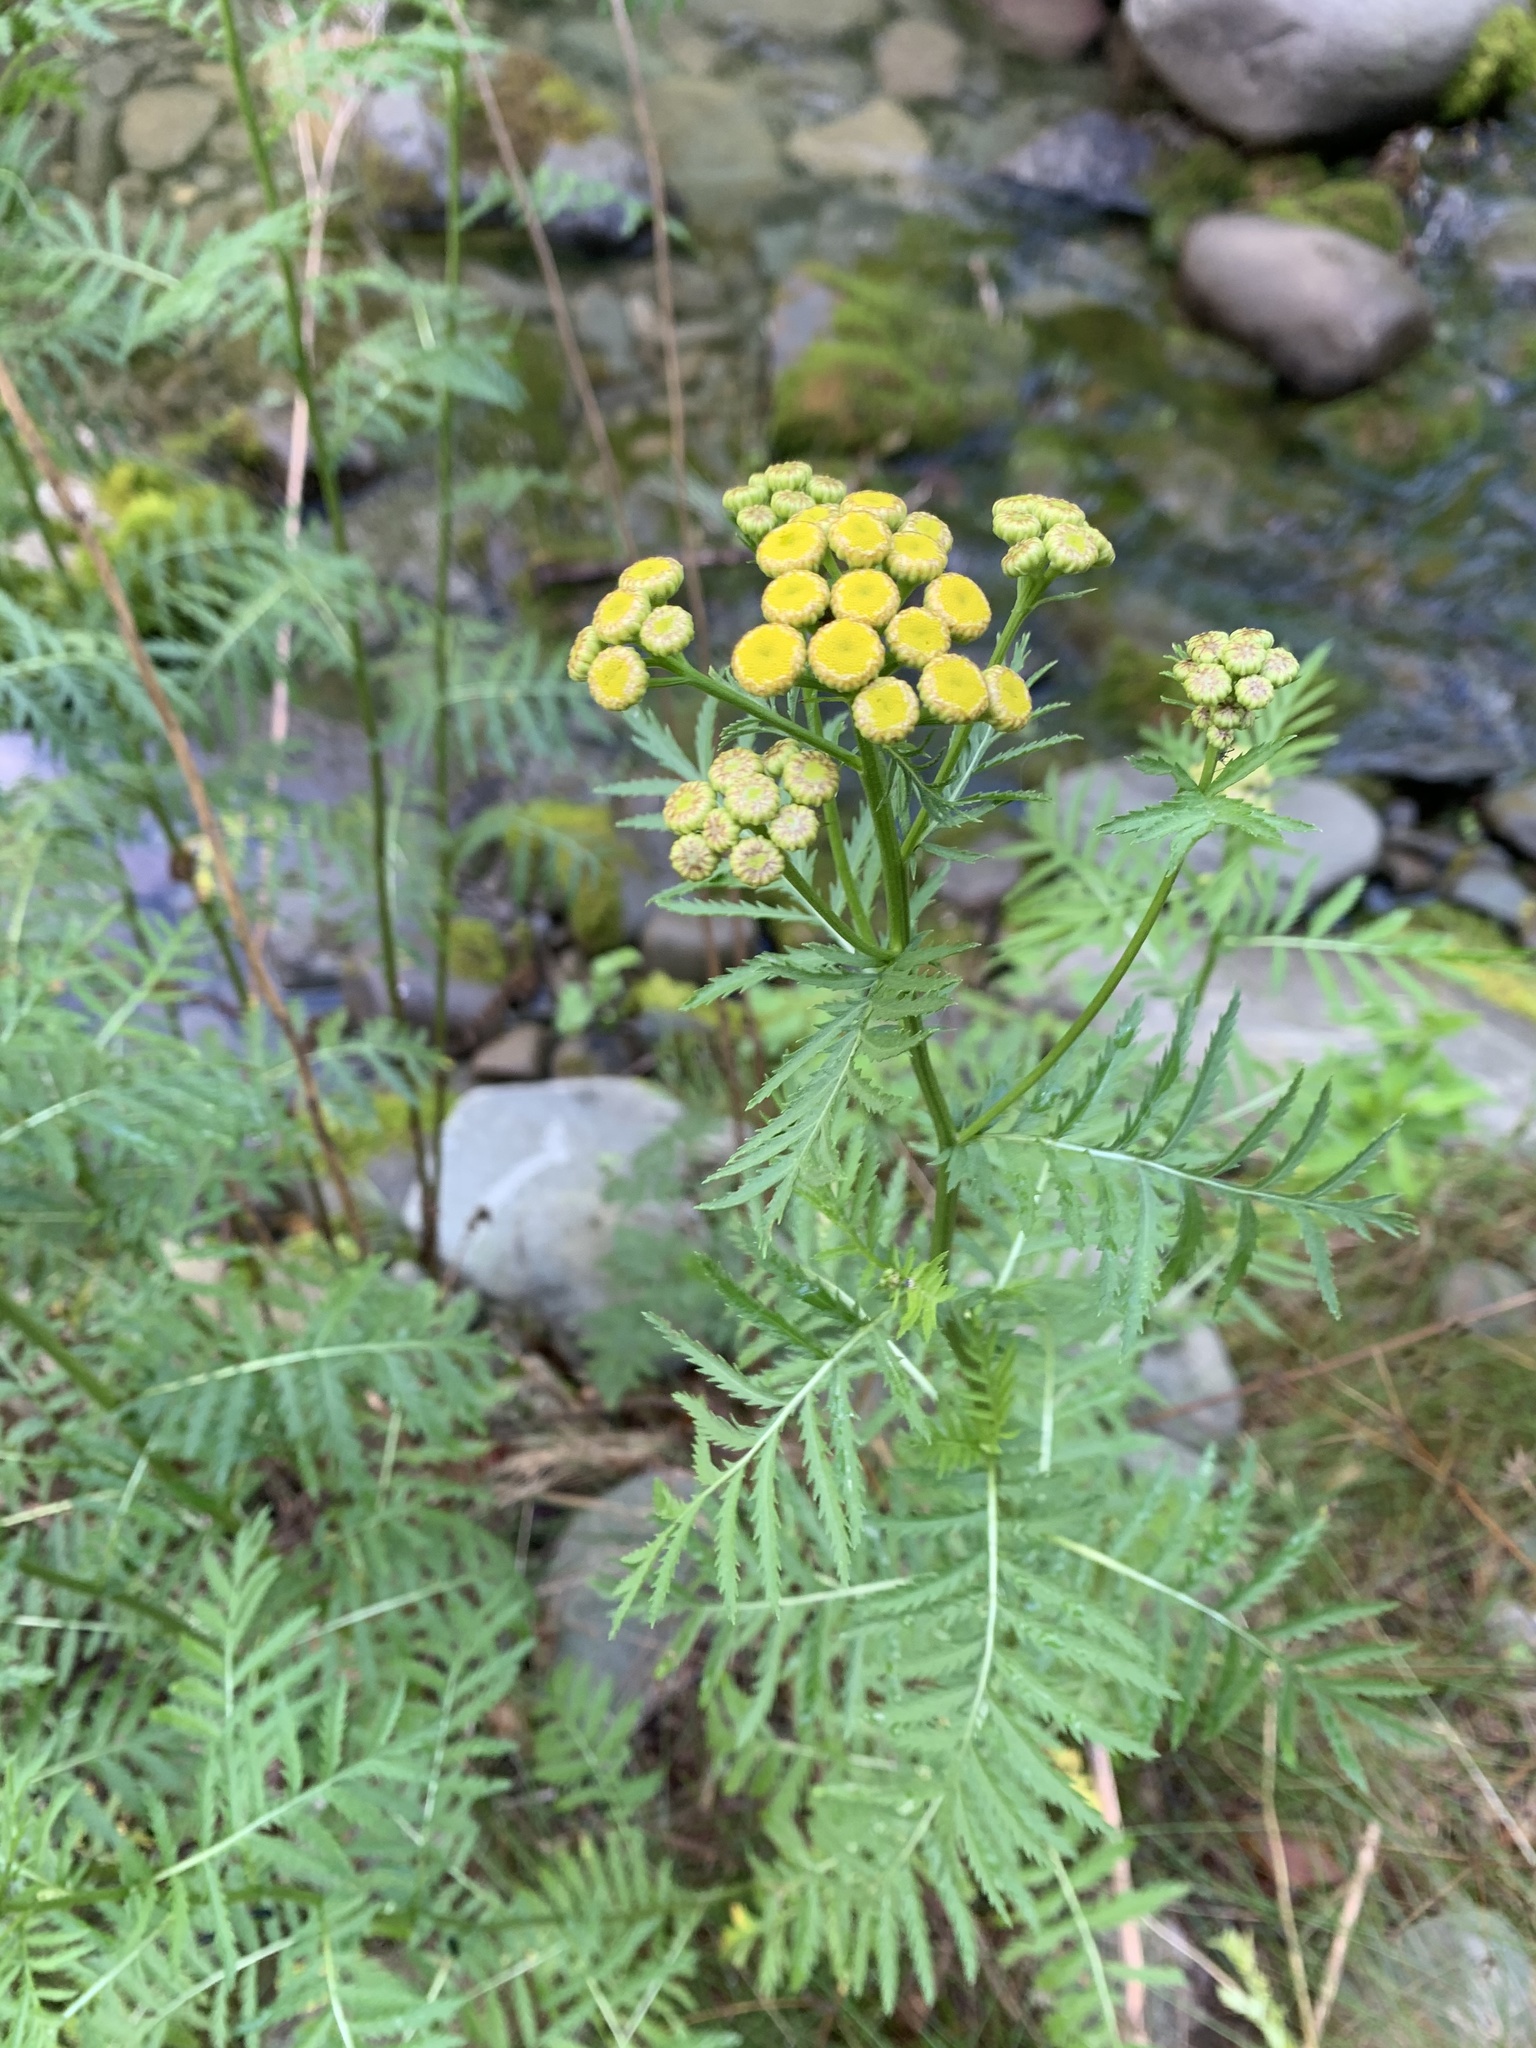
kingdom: Plantae
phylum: Tracheophyta
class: Magnoliopsida
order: Asterales
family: Asteraceae
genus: Tanacetum
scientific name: Tanacetum vulgare
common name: Common tansy
